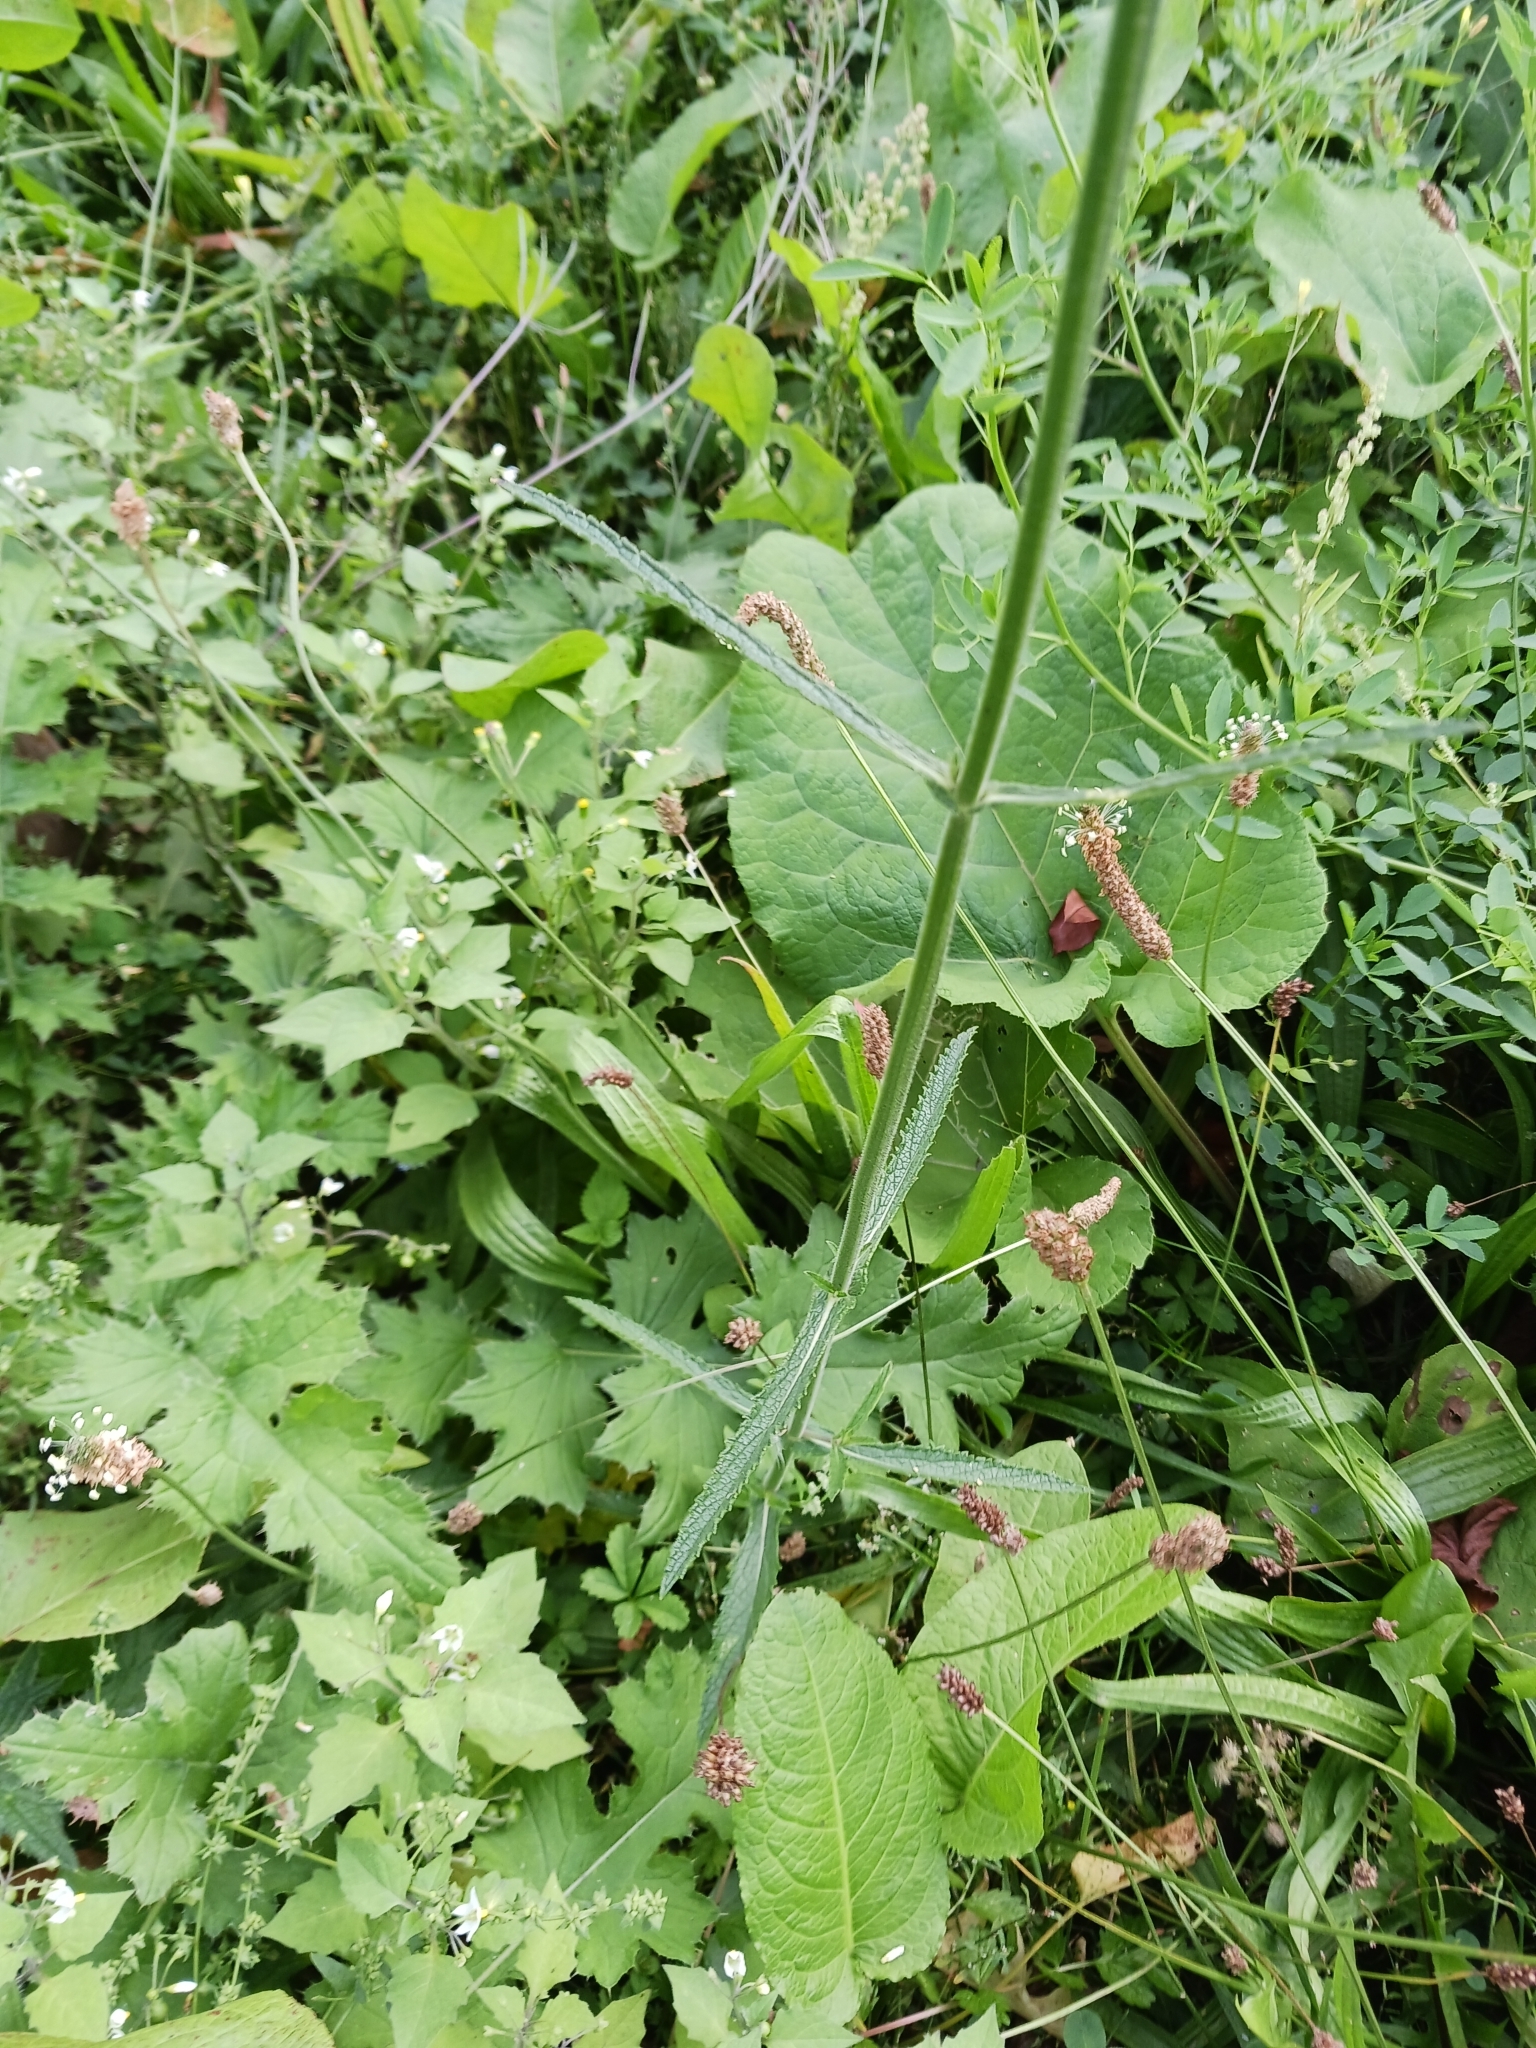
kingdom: Plantae
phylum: Tracheophyta
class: Magnoliopsida
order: Lamiales
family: Verbenaceae
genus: Verbena
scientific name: Verbena bonariensis
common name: Purpletop vervain
